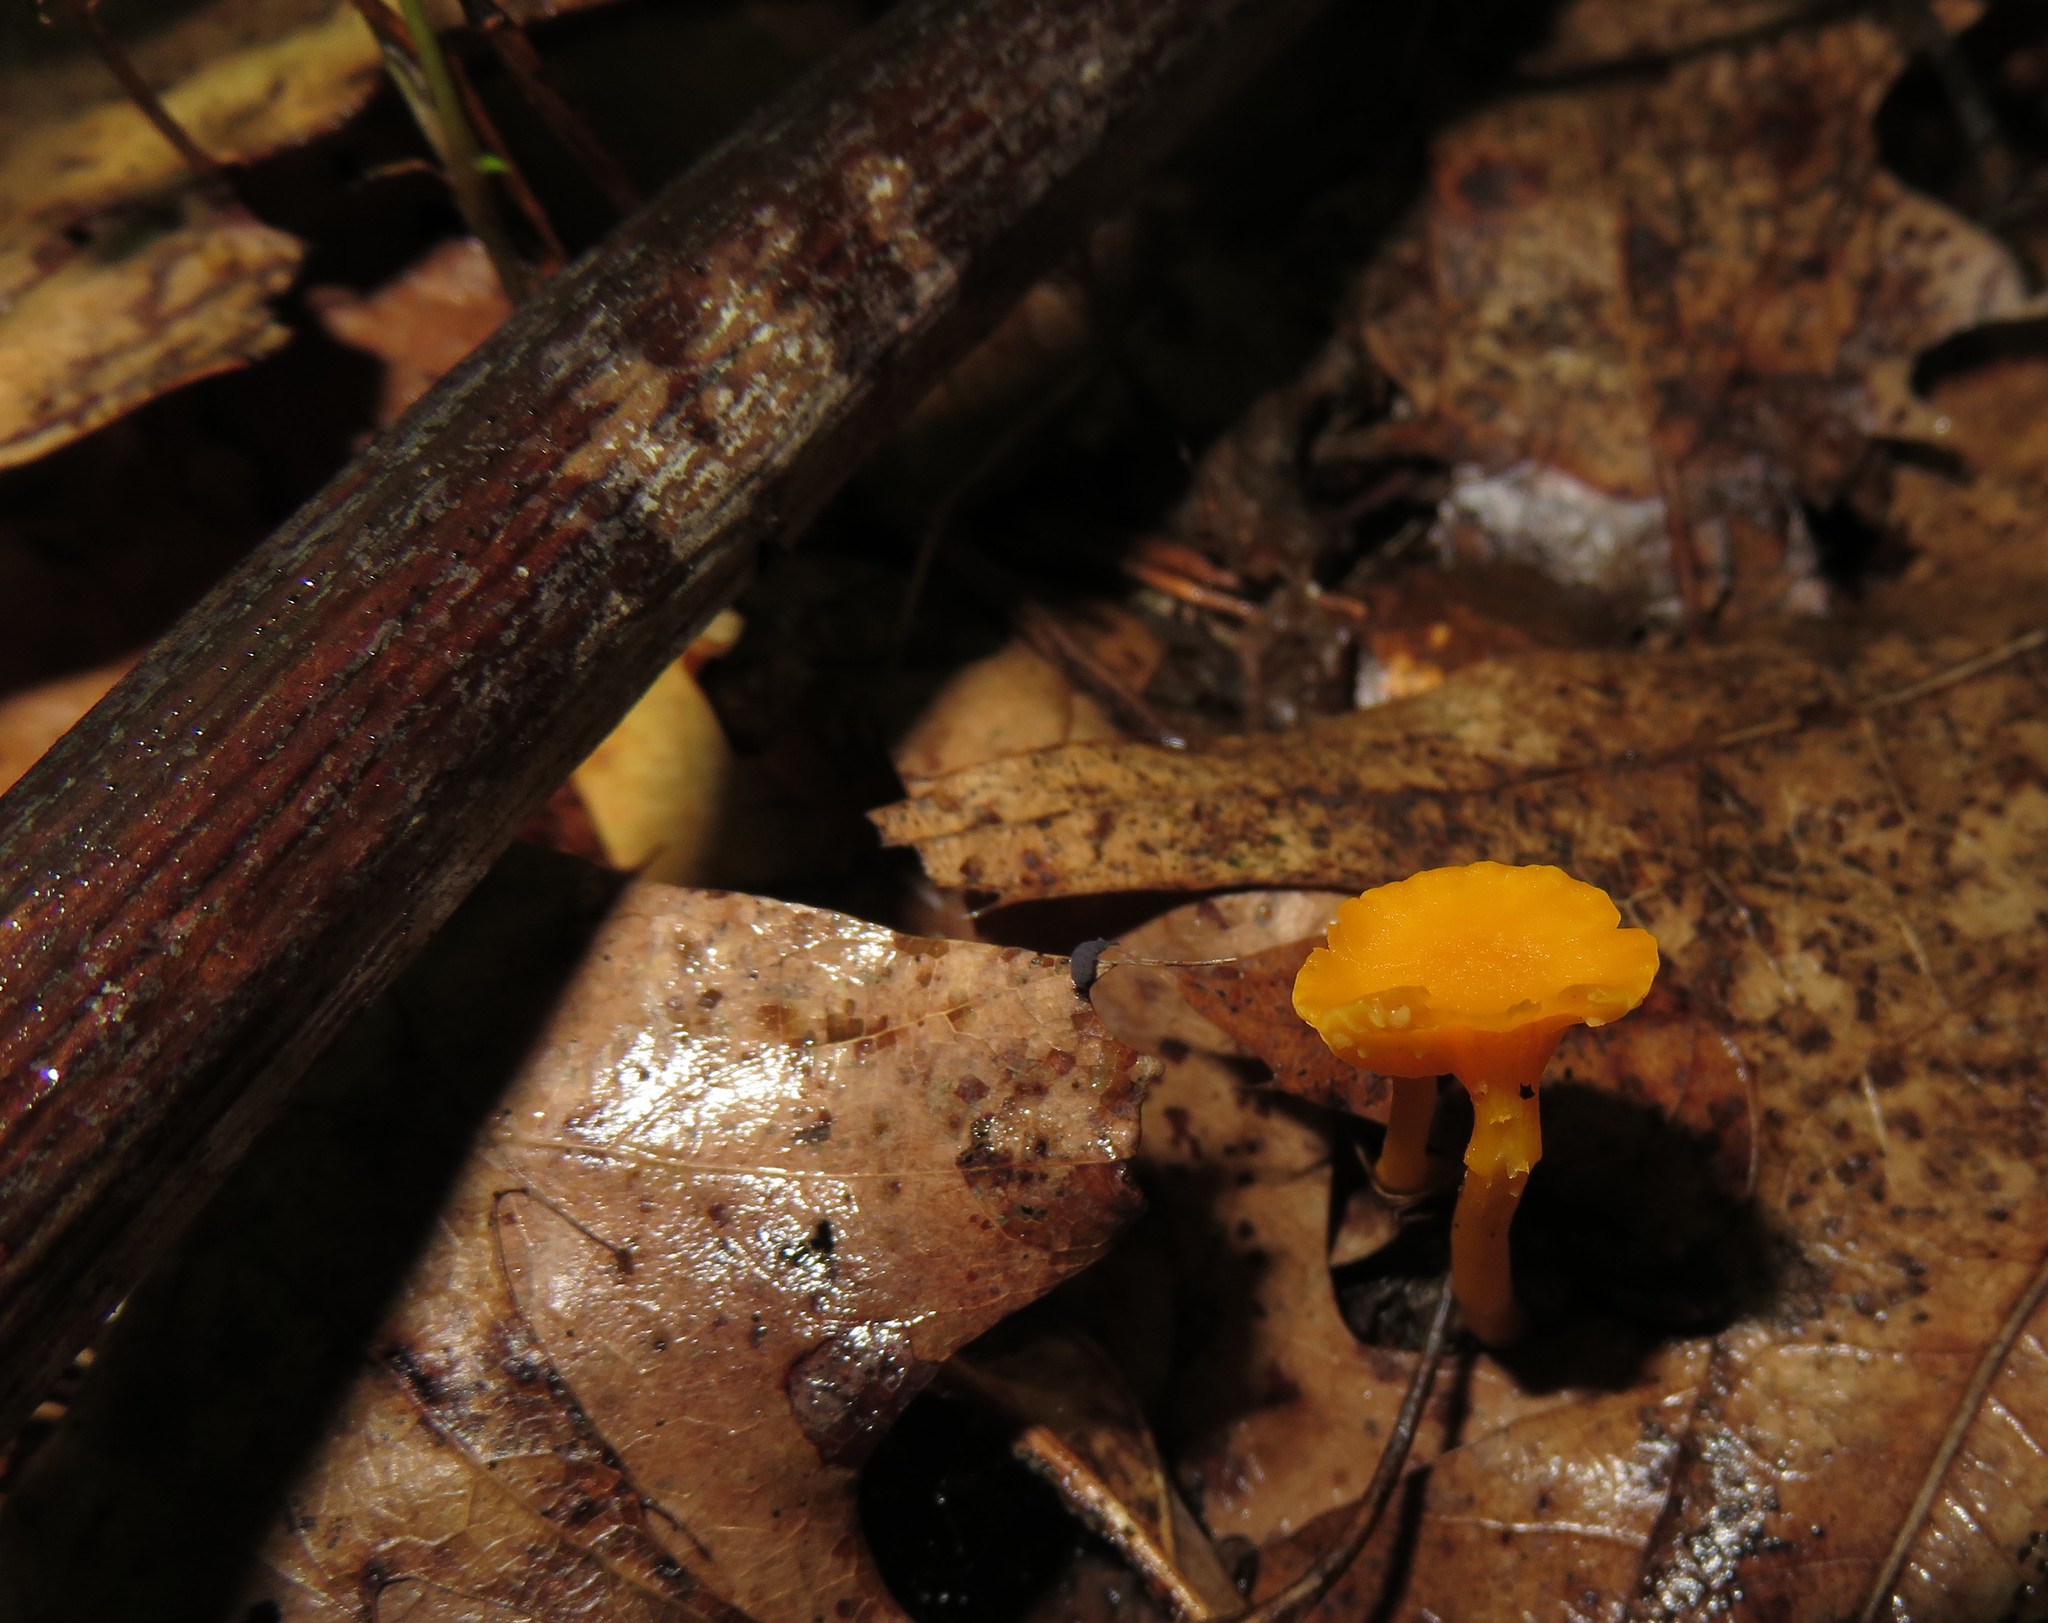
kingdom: Fungi
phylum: Basidiomycota
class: Agaricomycetes
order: Cantharellales
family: Hydnaceae
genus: Cantharellus
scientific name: Cantharellus minor
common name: Small chanterelle
